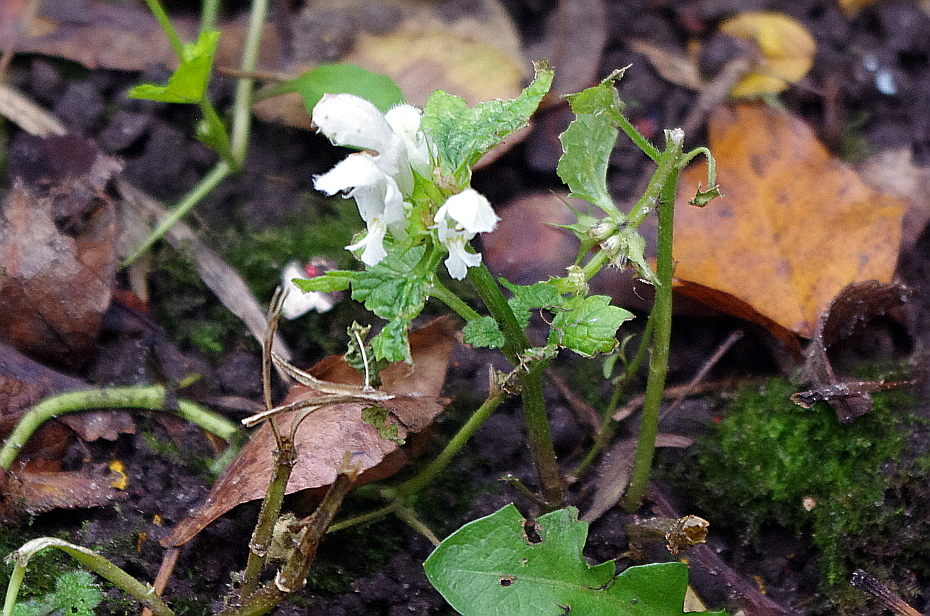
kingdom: Plantae
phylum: Tracheophyta
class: Magnoliopsida
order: Lamiales
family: Lamiaceae
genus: Lamium
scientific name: Lamium album
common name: White dead-nettle
